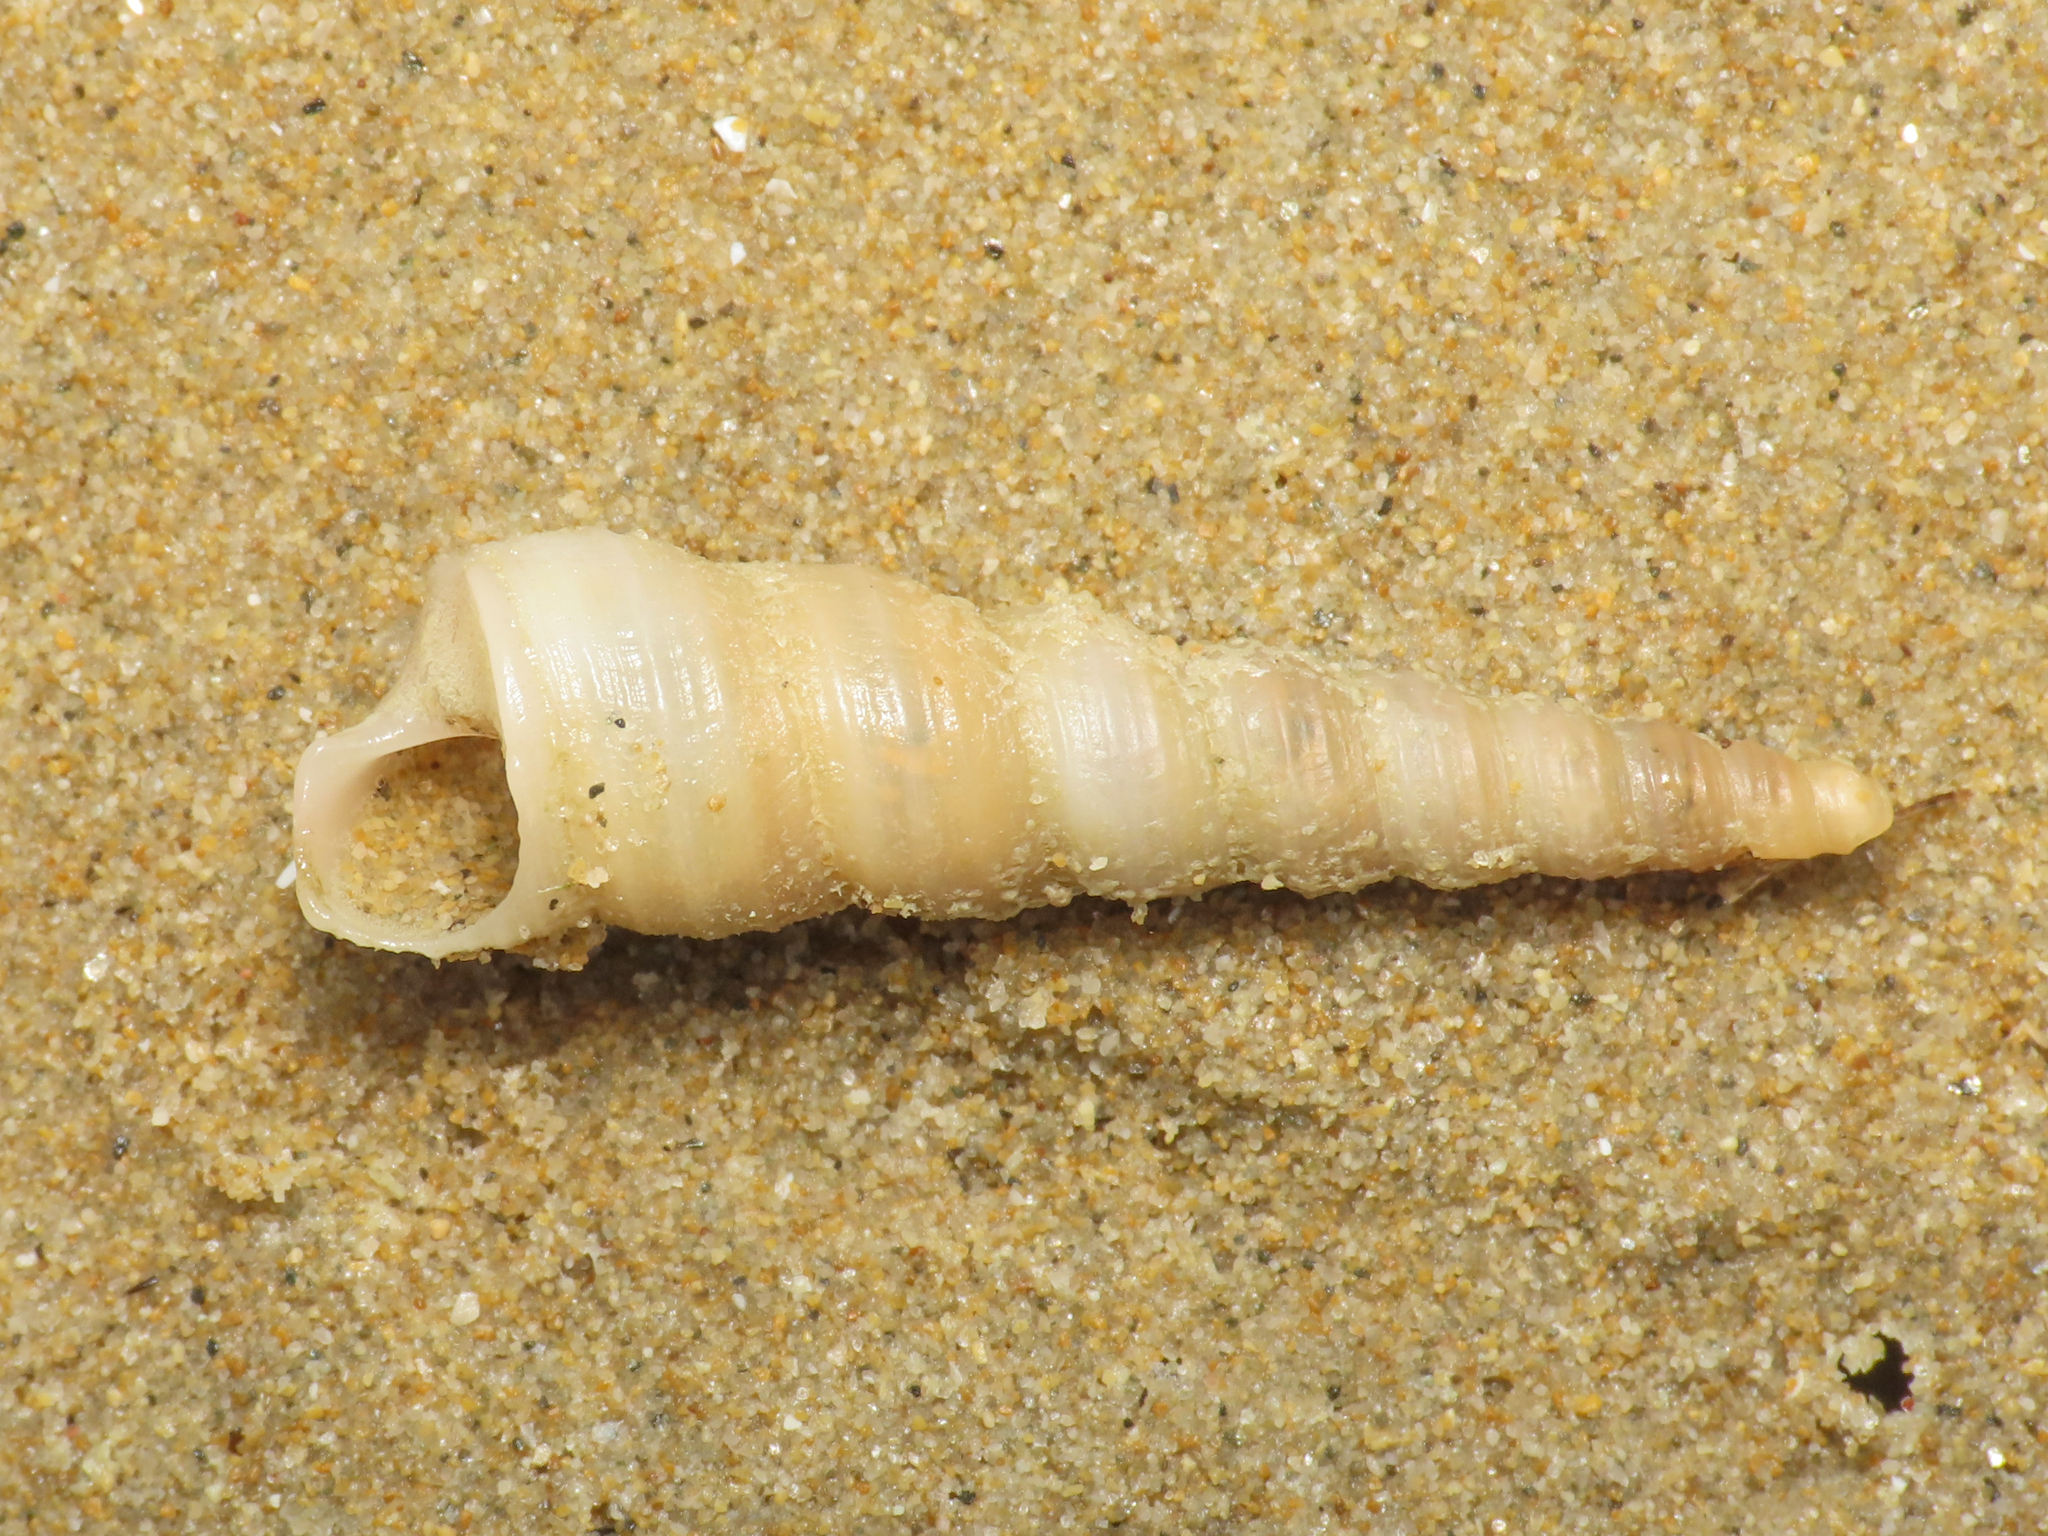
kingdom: Animalia
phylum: Mollusca
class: Gastropoda
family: Turritellidae
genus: Turritellinella
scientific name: Turritellinella tricarinata
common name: Auger shell
